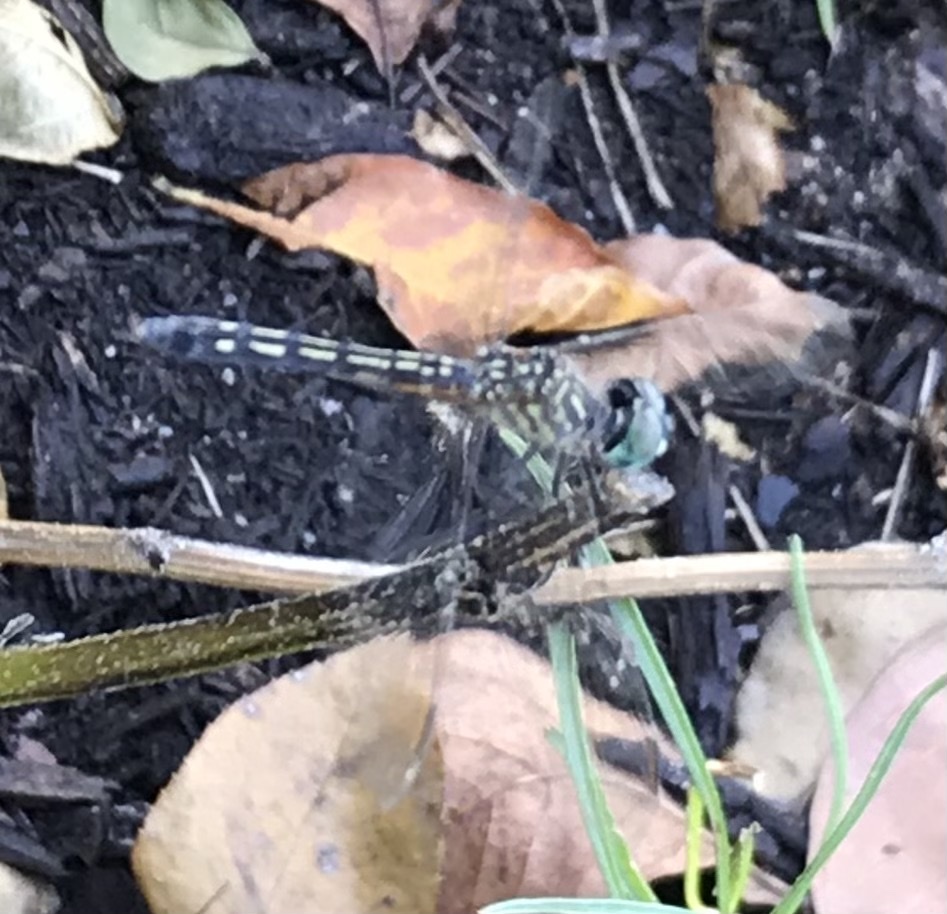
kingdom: Animalia
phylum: Arthropoda
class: Insecta
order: Odonata
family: Libellulidae
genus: Pachydiplax
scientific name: Pachydiplax longipennis
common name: Blue dasher
